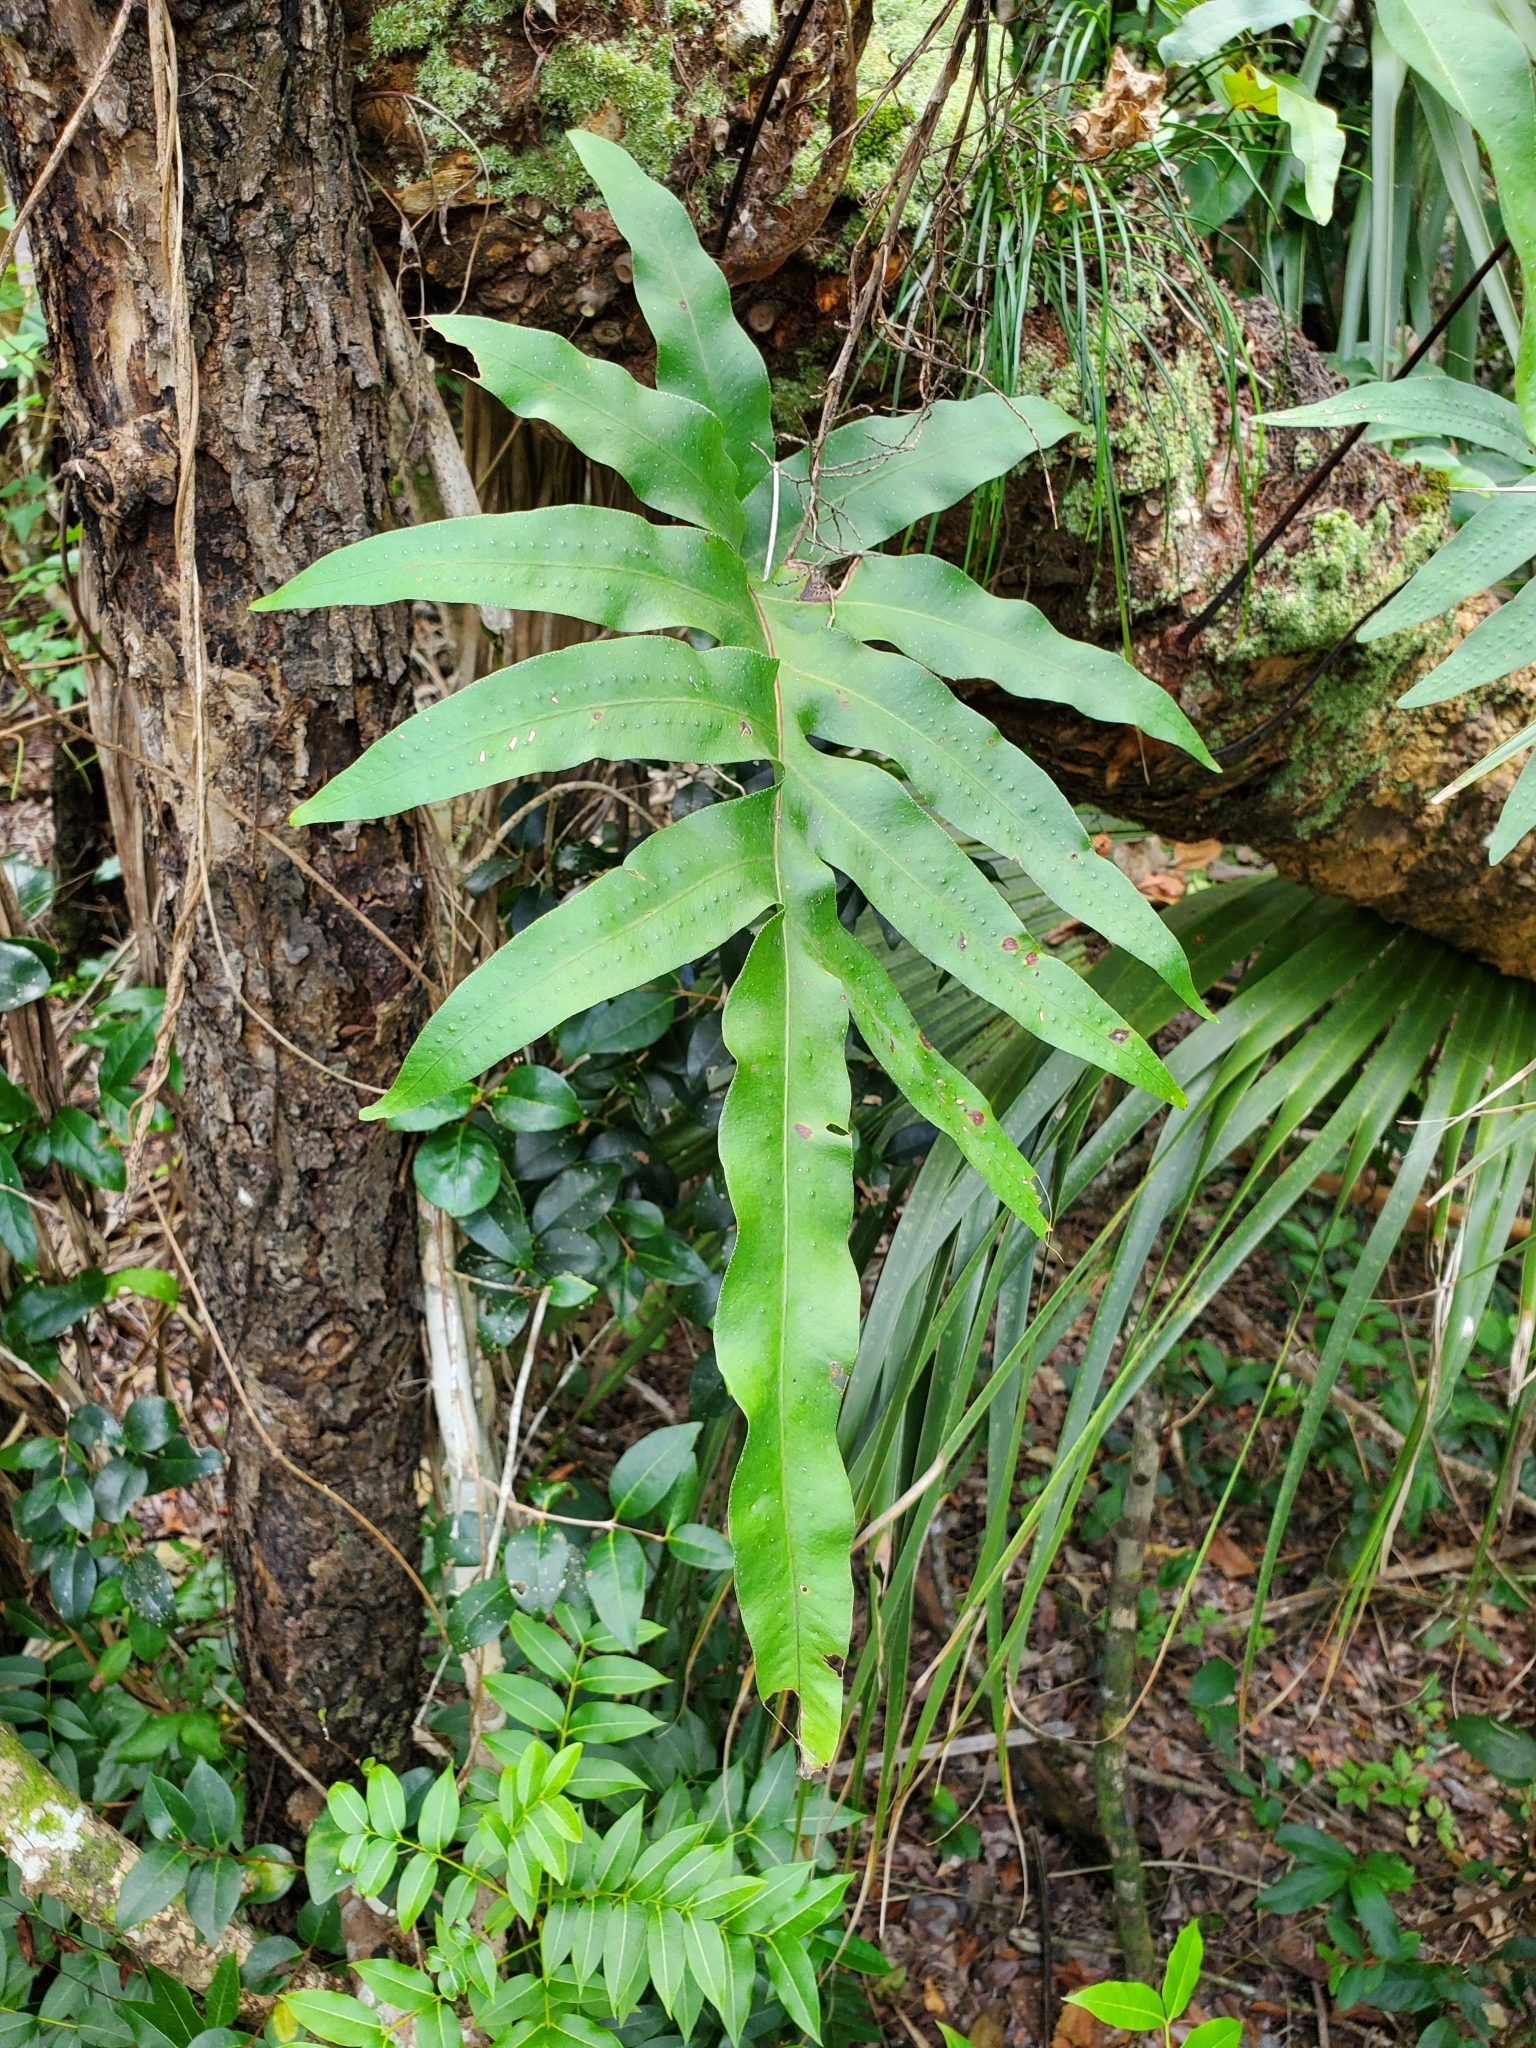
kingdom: Plantae
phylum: Tracheophyta
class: Polypodiopsida
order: Polypodiales
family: Polypodiaceae
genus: Phlebodium
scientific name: Phlebodium aureum
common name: Gold-foot fern
